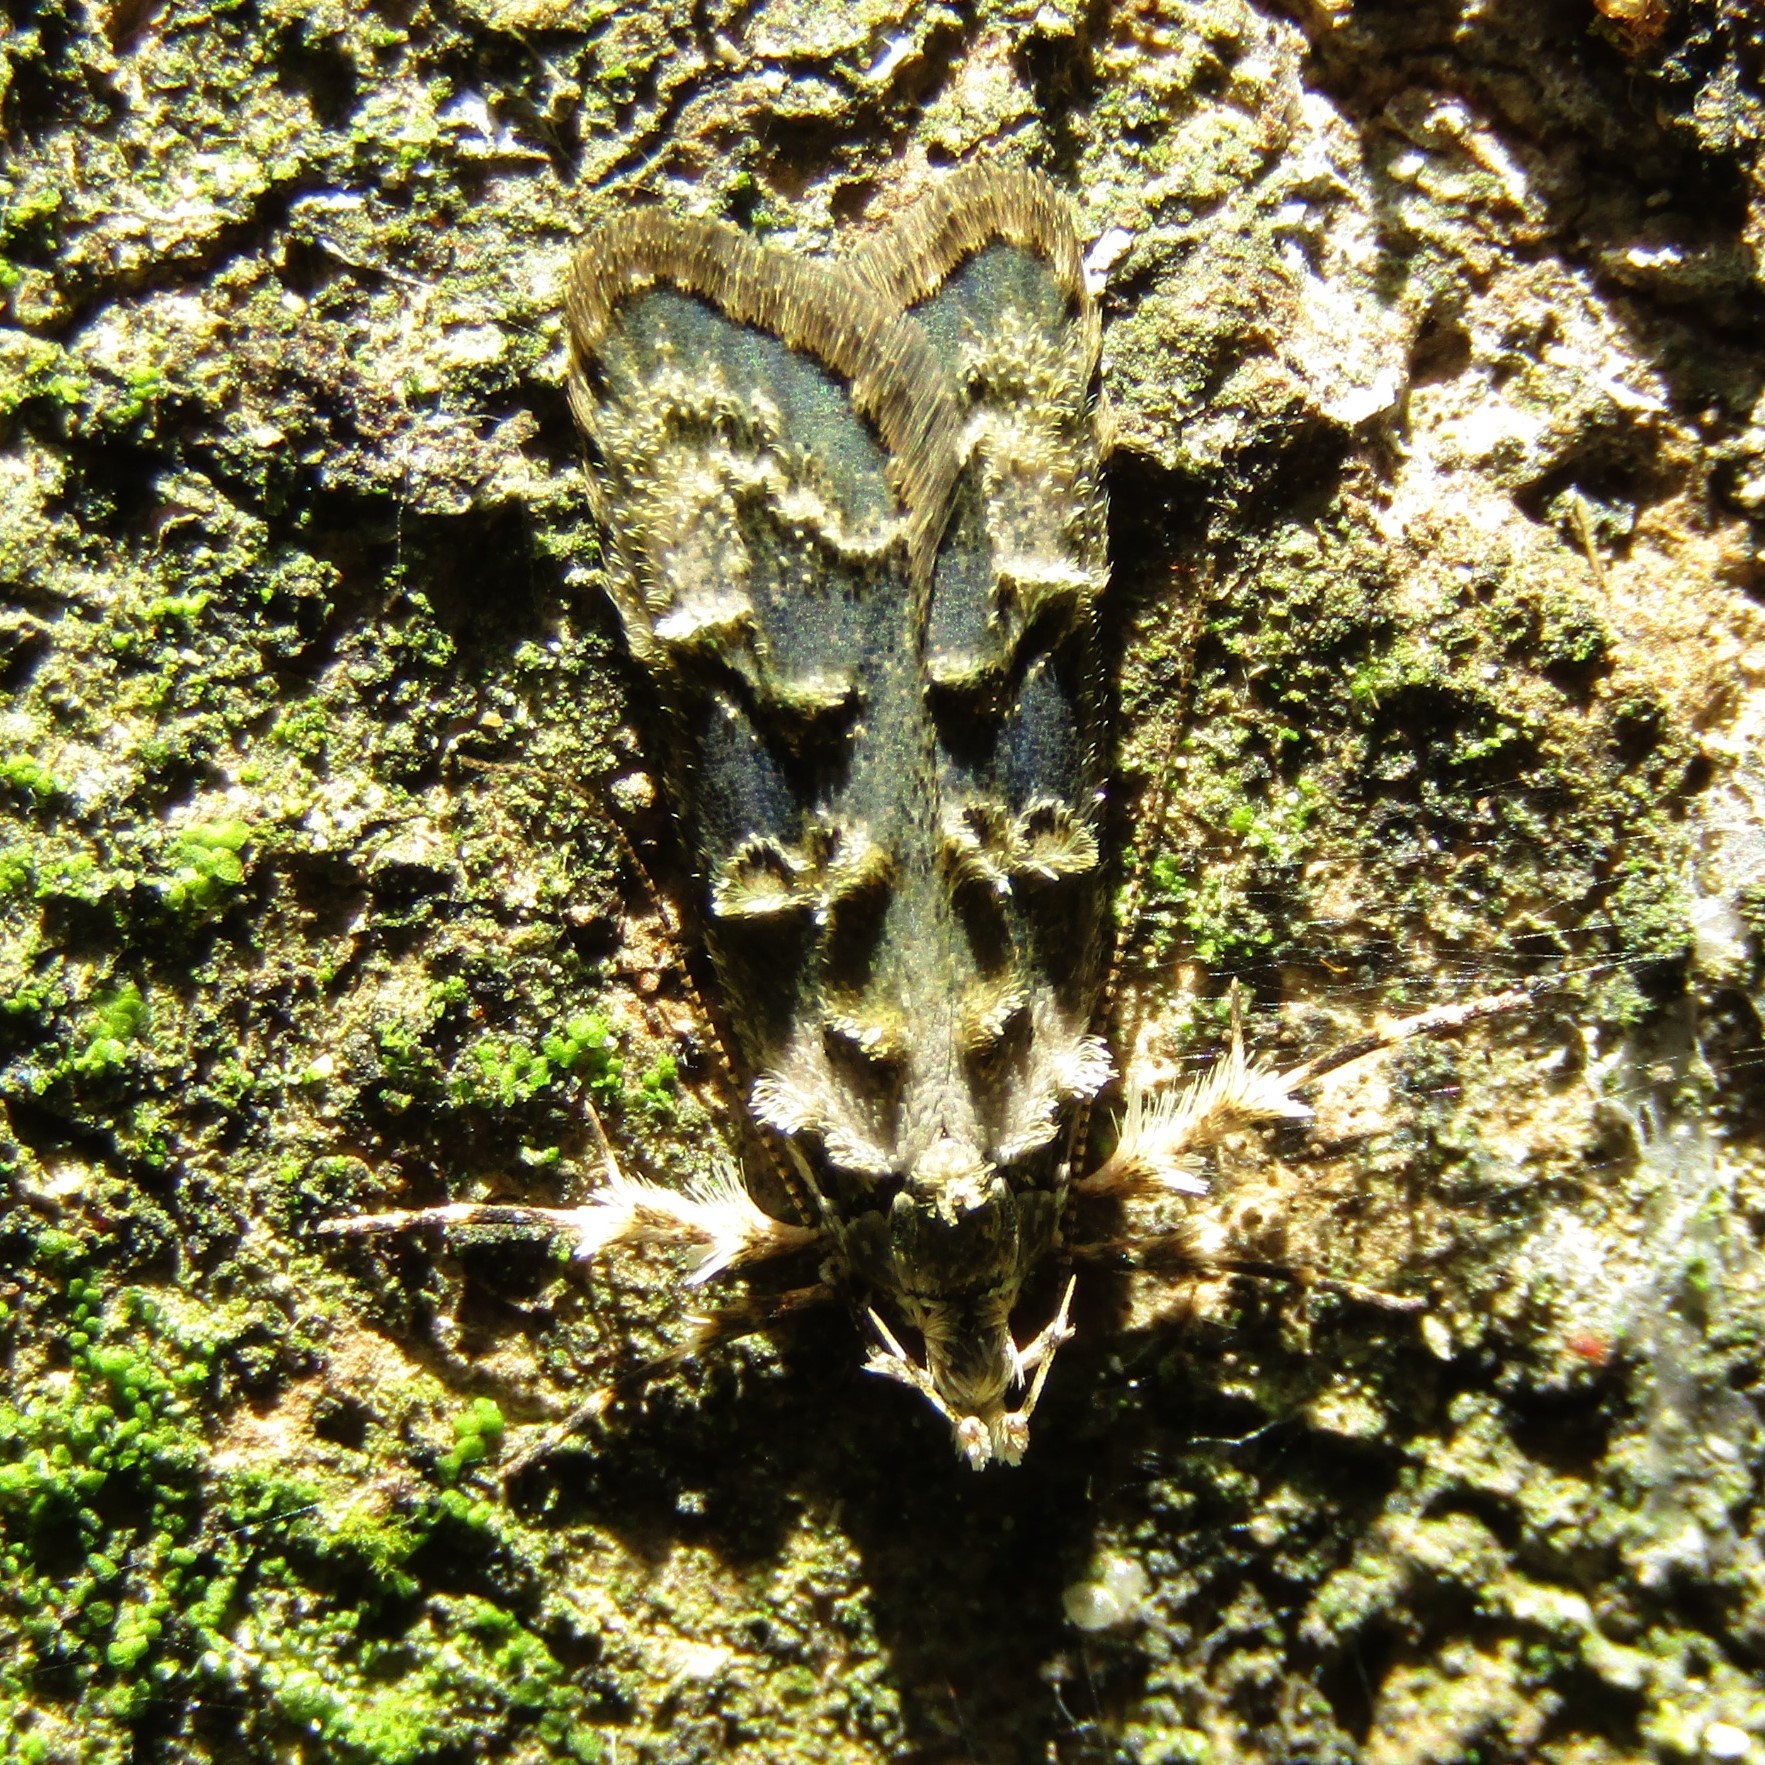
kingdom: Animalia
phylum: Arthropoda
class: Insecta
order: Lepidoptera
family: Oecophoridae
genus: Izatha
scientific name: Izatha prasophyta
